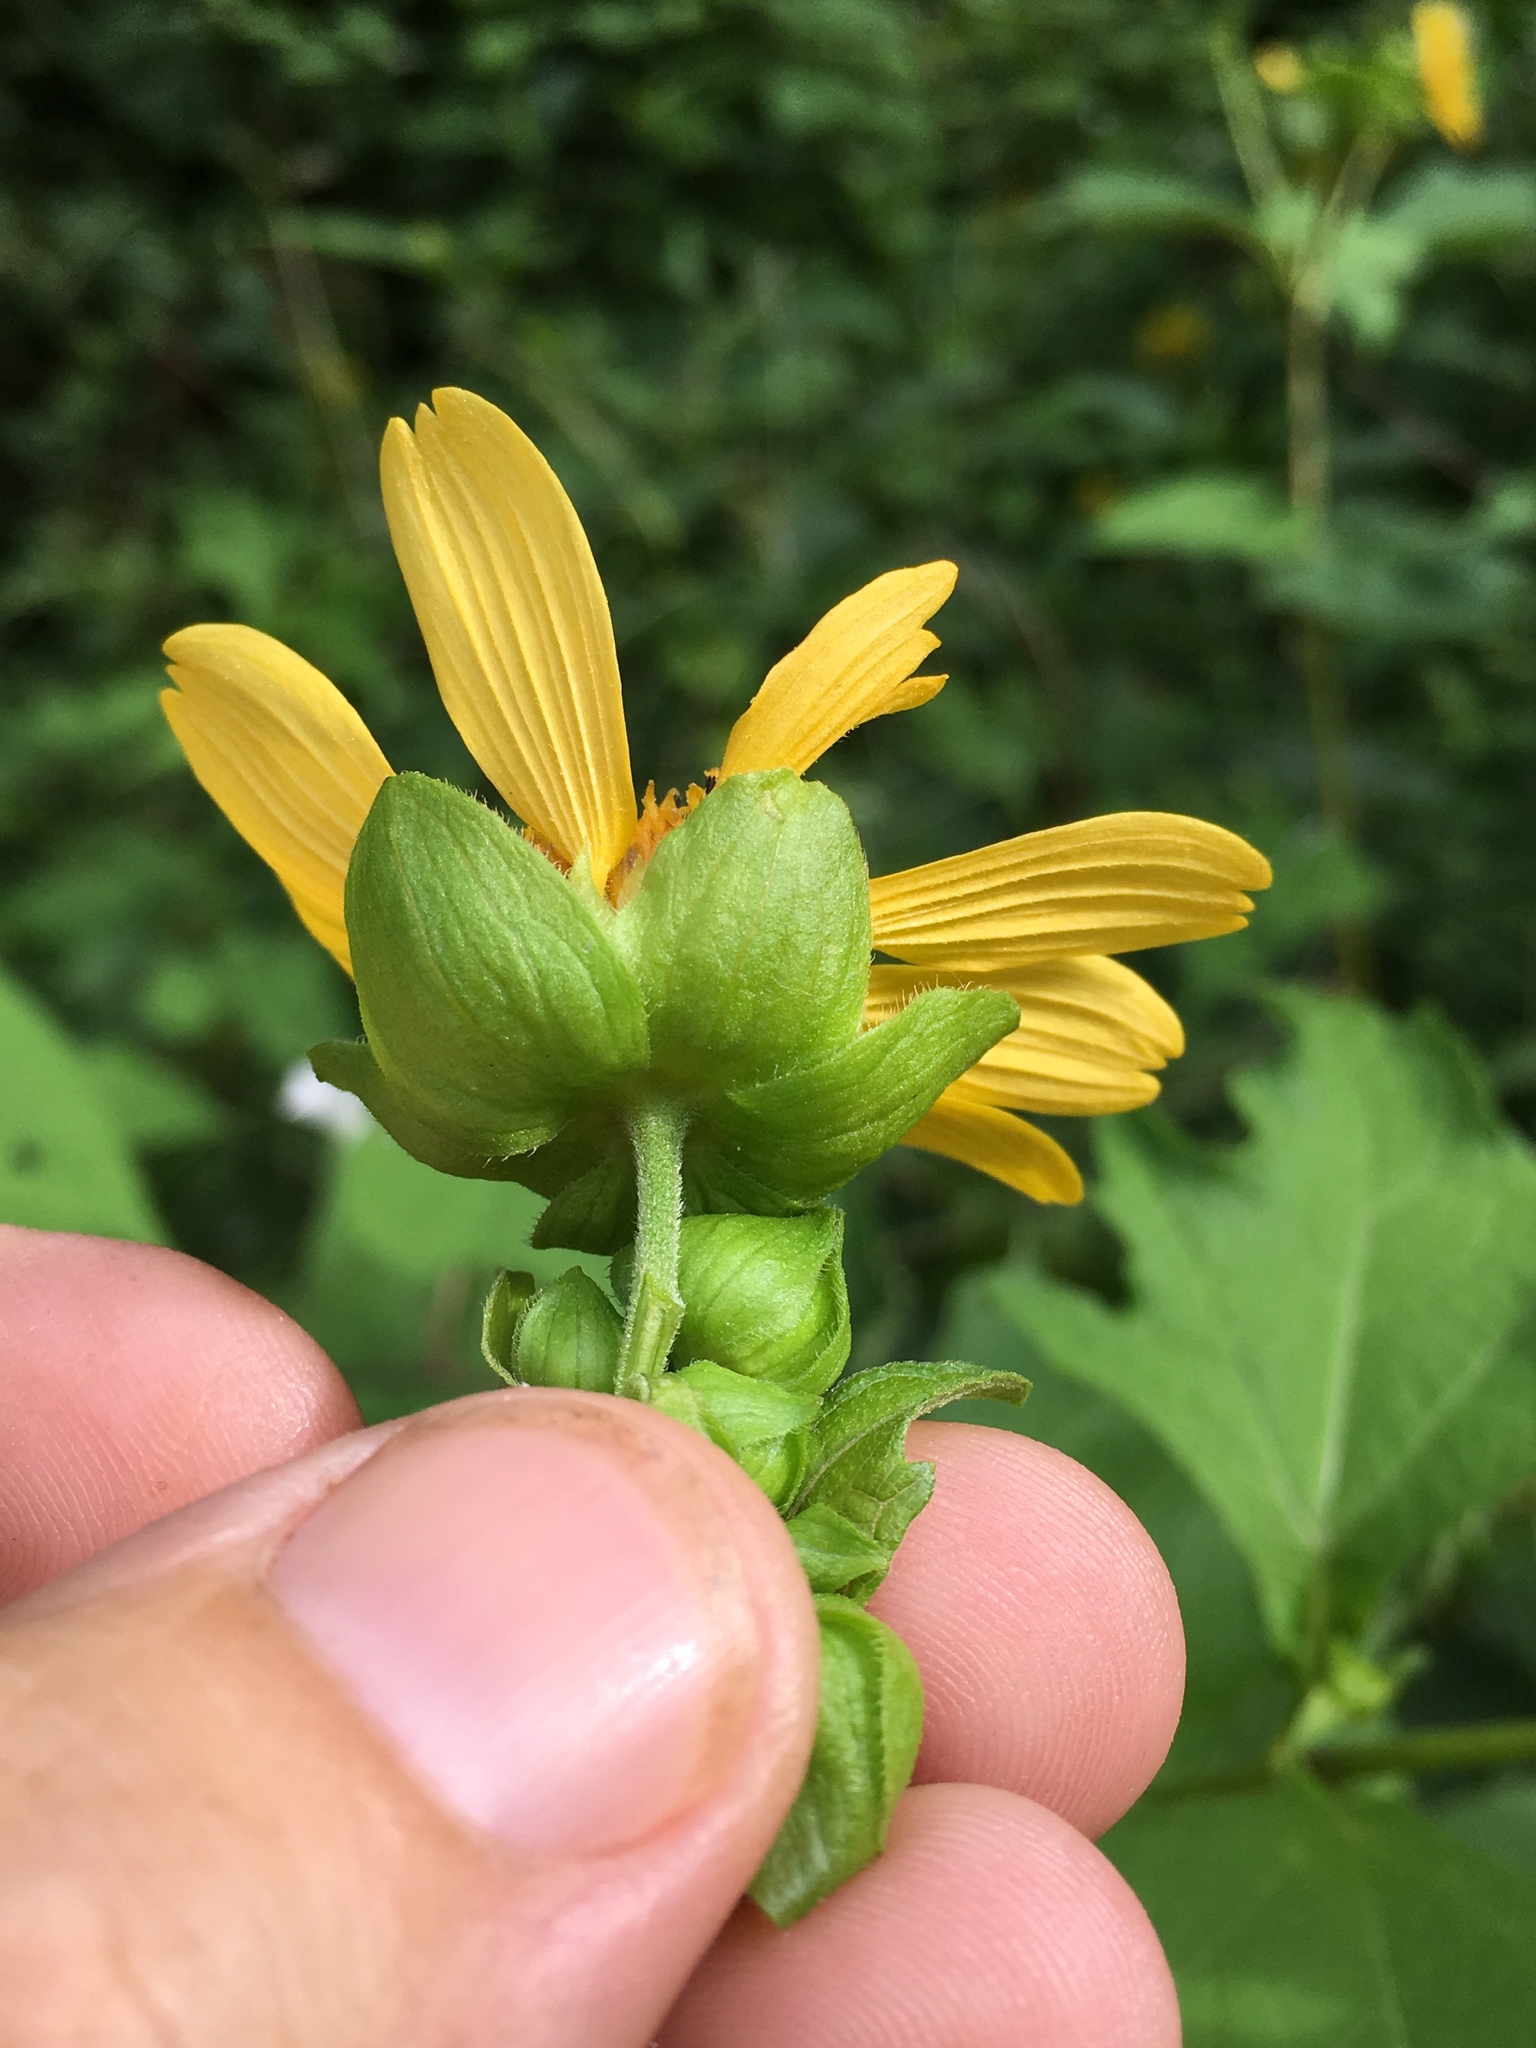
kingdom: Plantae
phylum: Tracheophyta
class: Magnoliopsida
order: Asterales
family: Asteraceae
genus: Smallanthus
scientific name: Smallanthus uvedalia
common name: Bear's-foot
